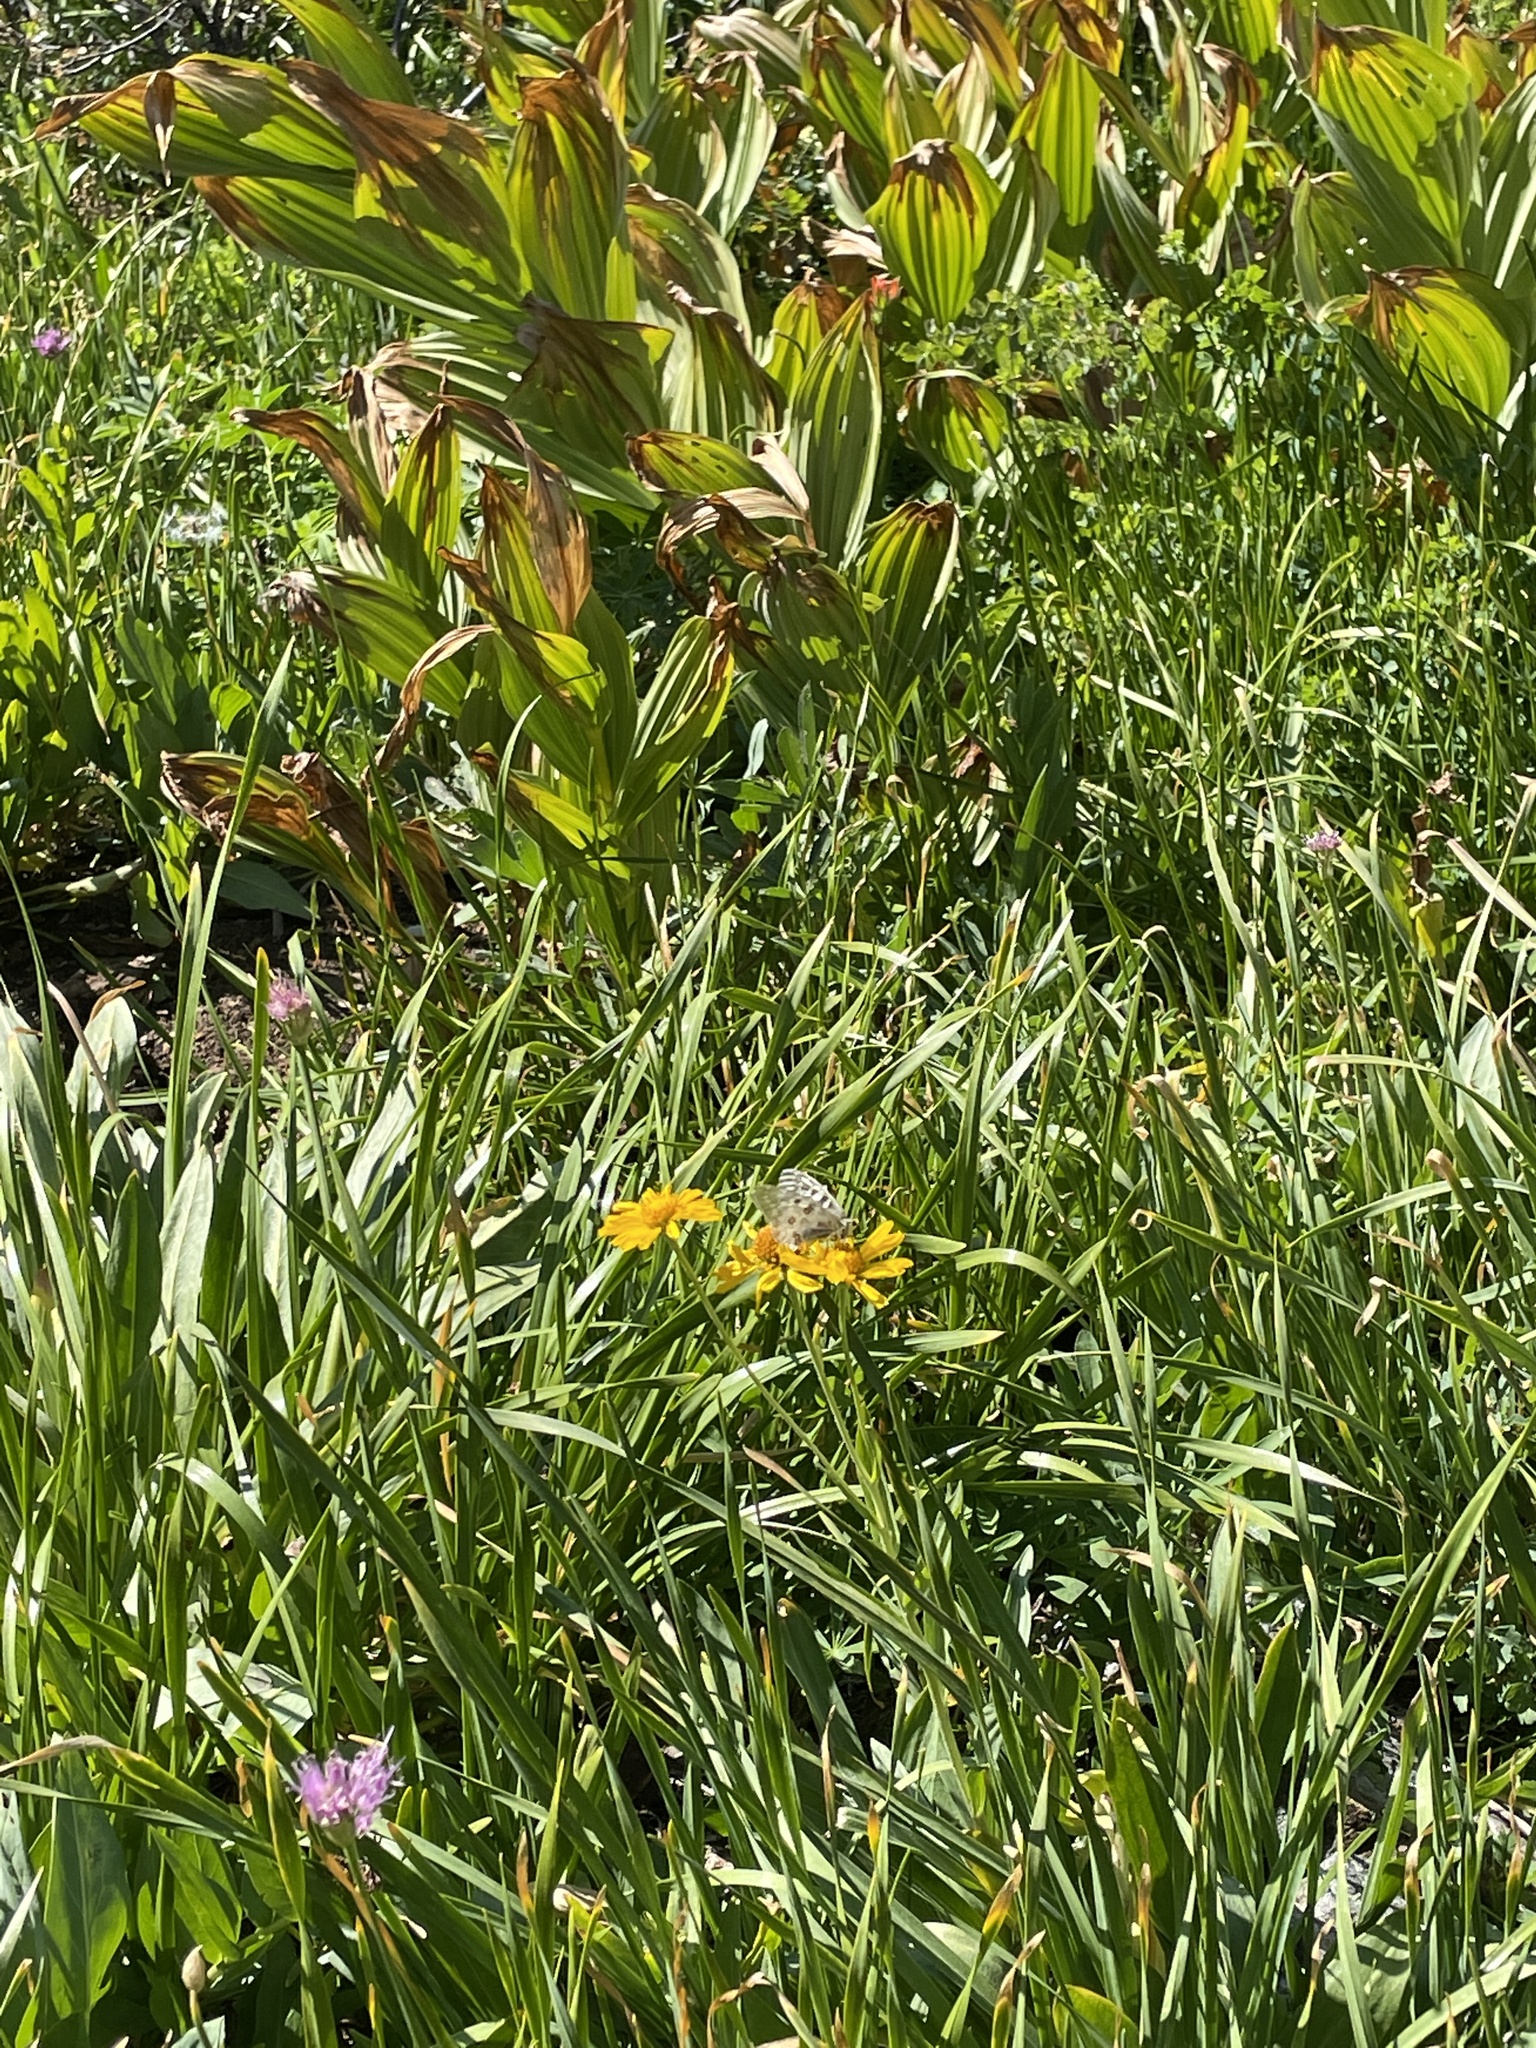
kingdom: Animalia
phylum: Arthropoda
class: Insecta
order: Lepidoptera
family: Papilionidae
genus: Parnassius
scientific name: Parnassius clodius
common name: American apollo
